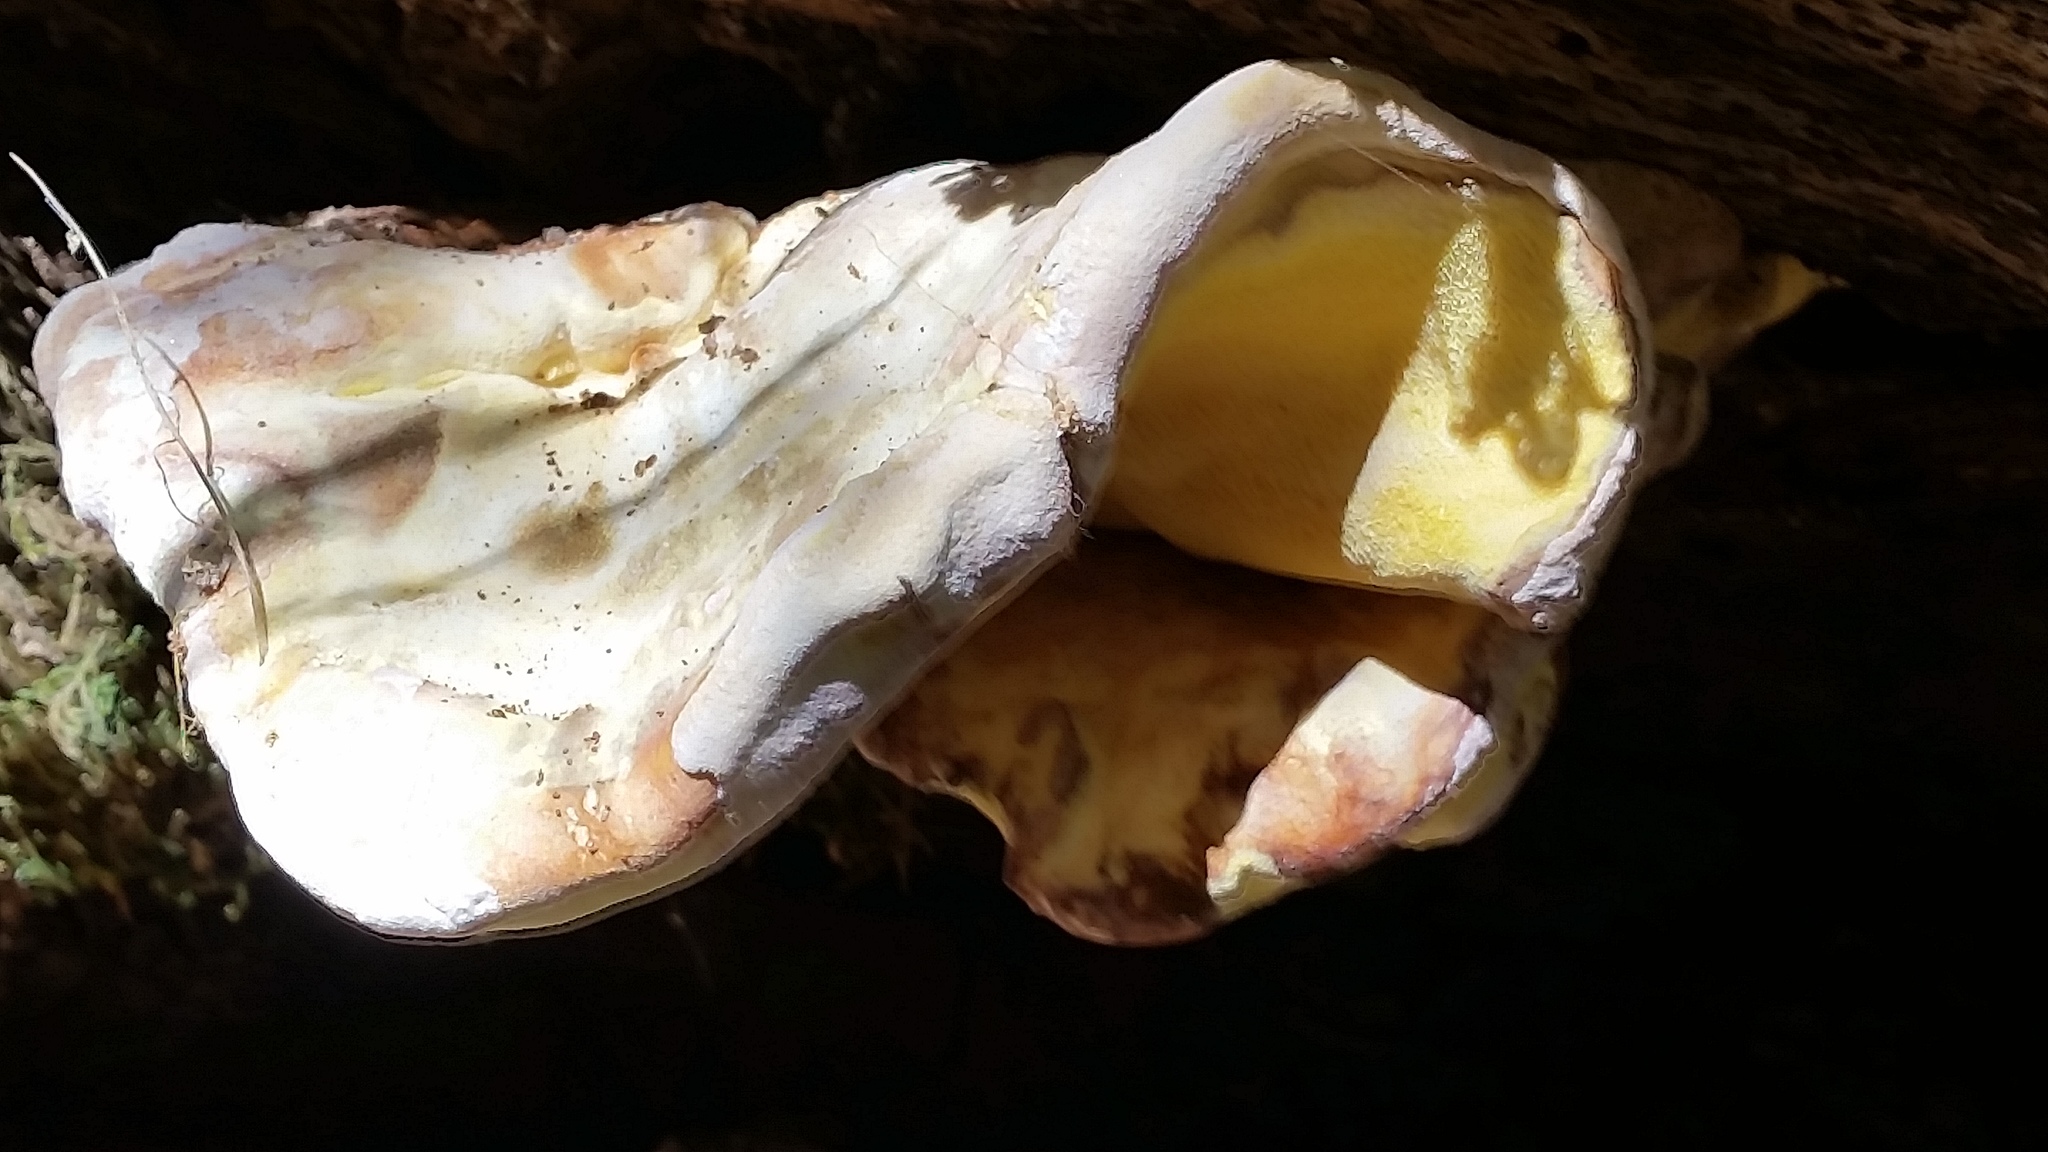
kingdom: Fungi
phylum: Basidiomycota
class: Agaricomycetes
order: Polyporales
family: Laetiporaceae
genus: Laetiporus
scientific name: Laetiporus gilbertsonii
